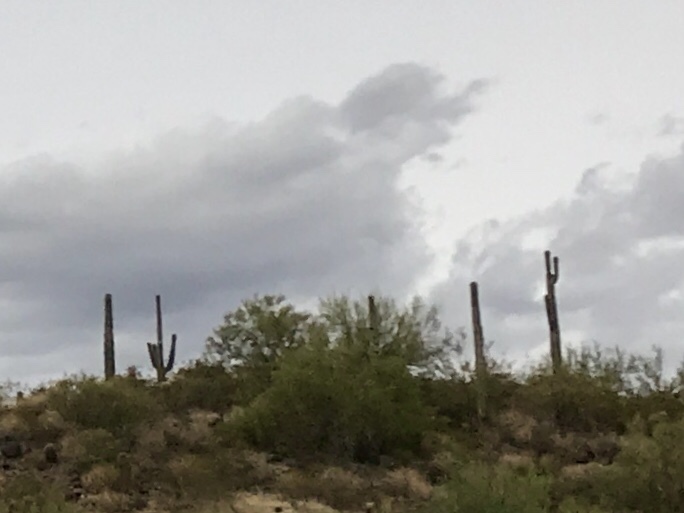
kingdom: Plantae
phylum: Tracheophyta
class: Magnoliopsida
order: Caryophyllales
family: Cactaceae
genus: Carnegiea
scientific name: Carnegiea gigantea
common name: Saguaro
